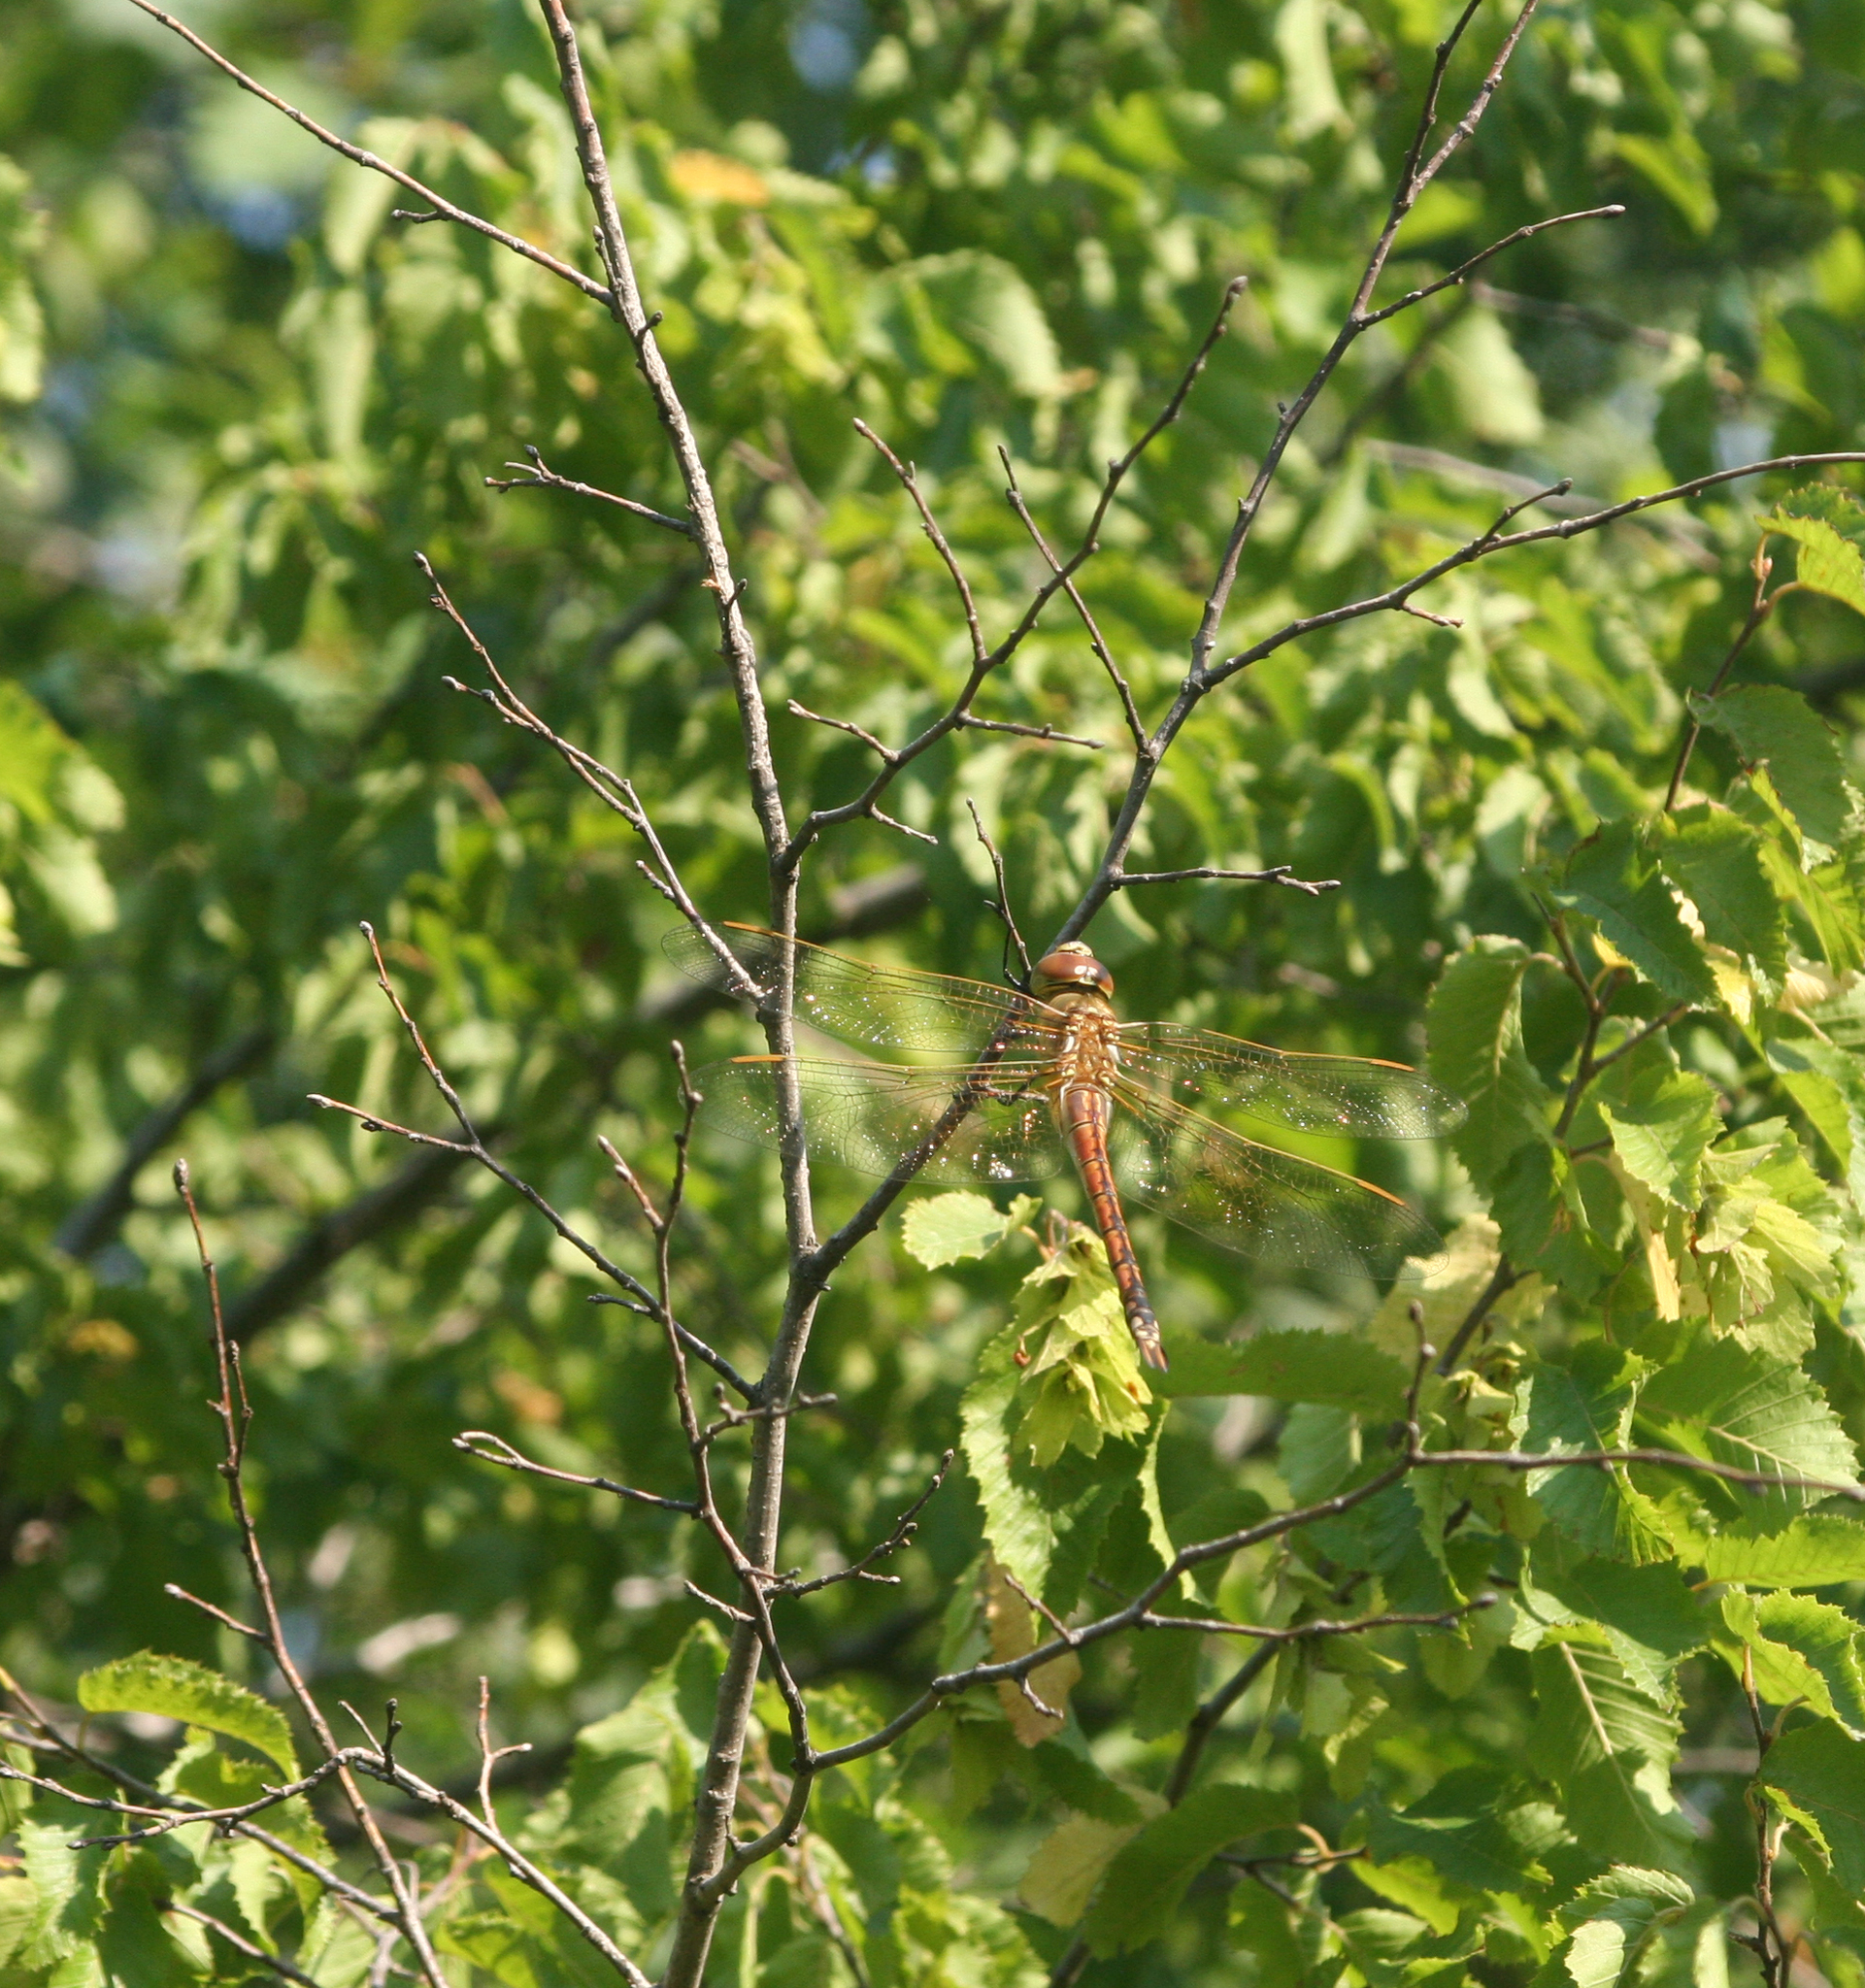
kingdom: Animalia
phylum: Arthropoda
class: Insecta
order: Odonata
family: Aeshnidae
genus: Anax
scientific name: Anax ephippiger
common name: Vagrant emperor
